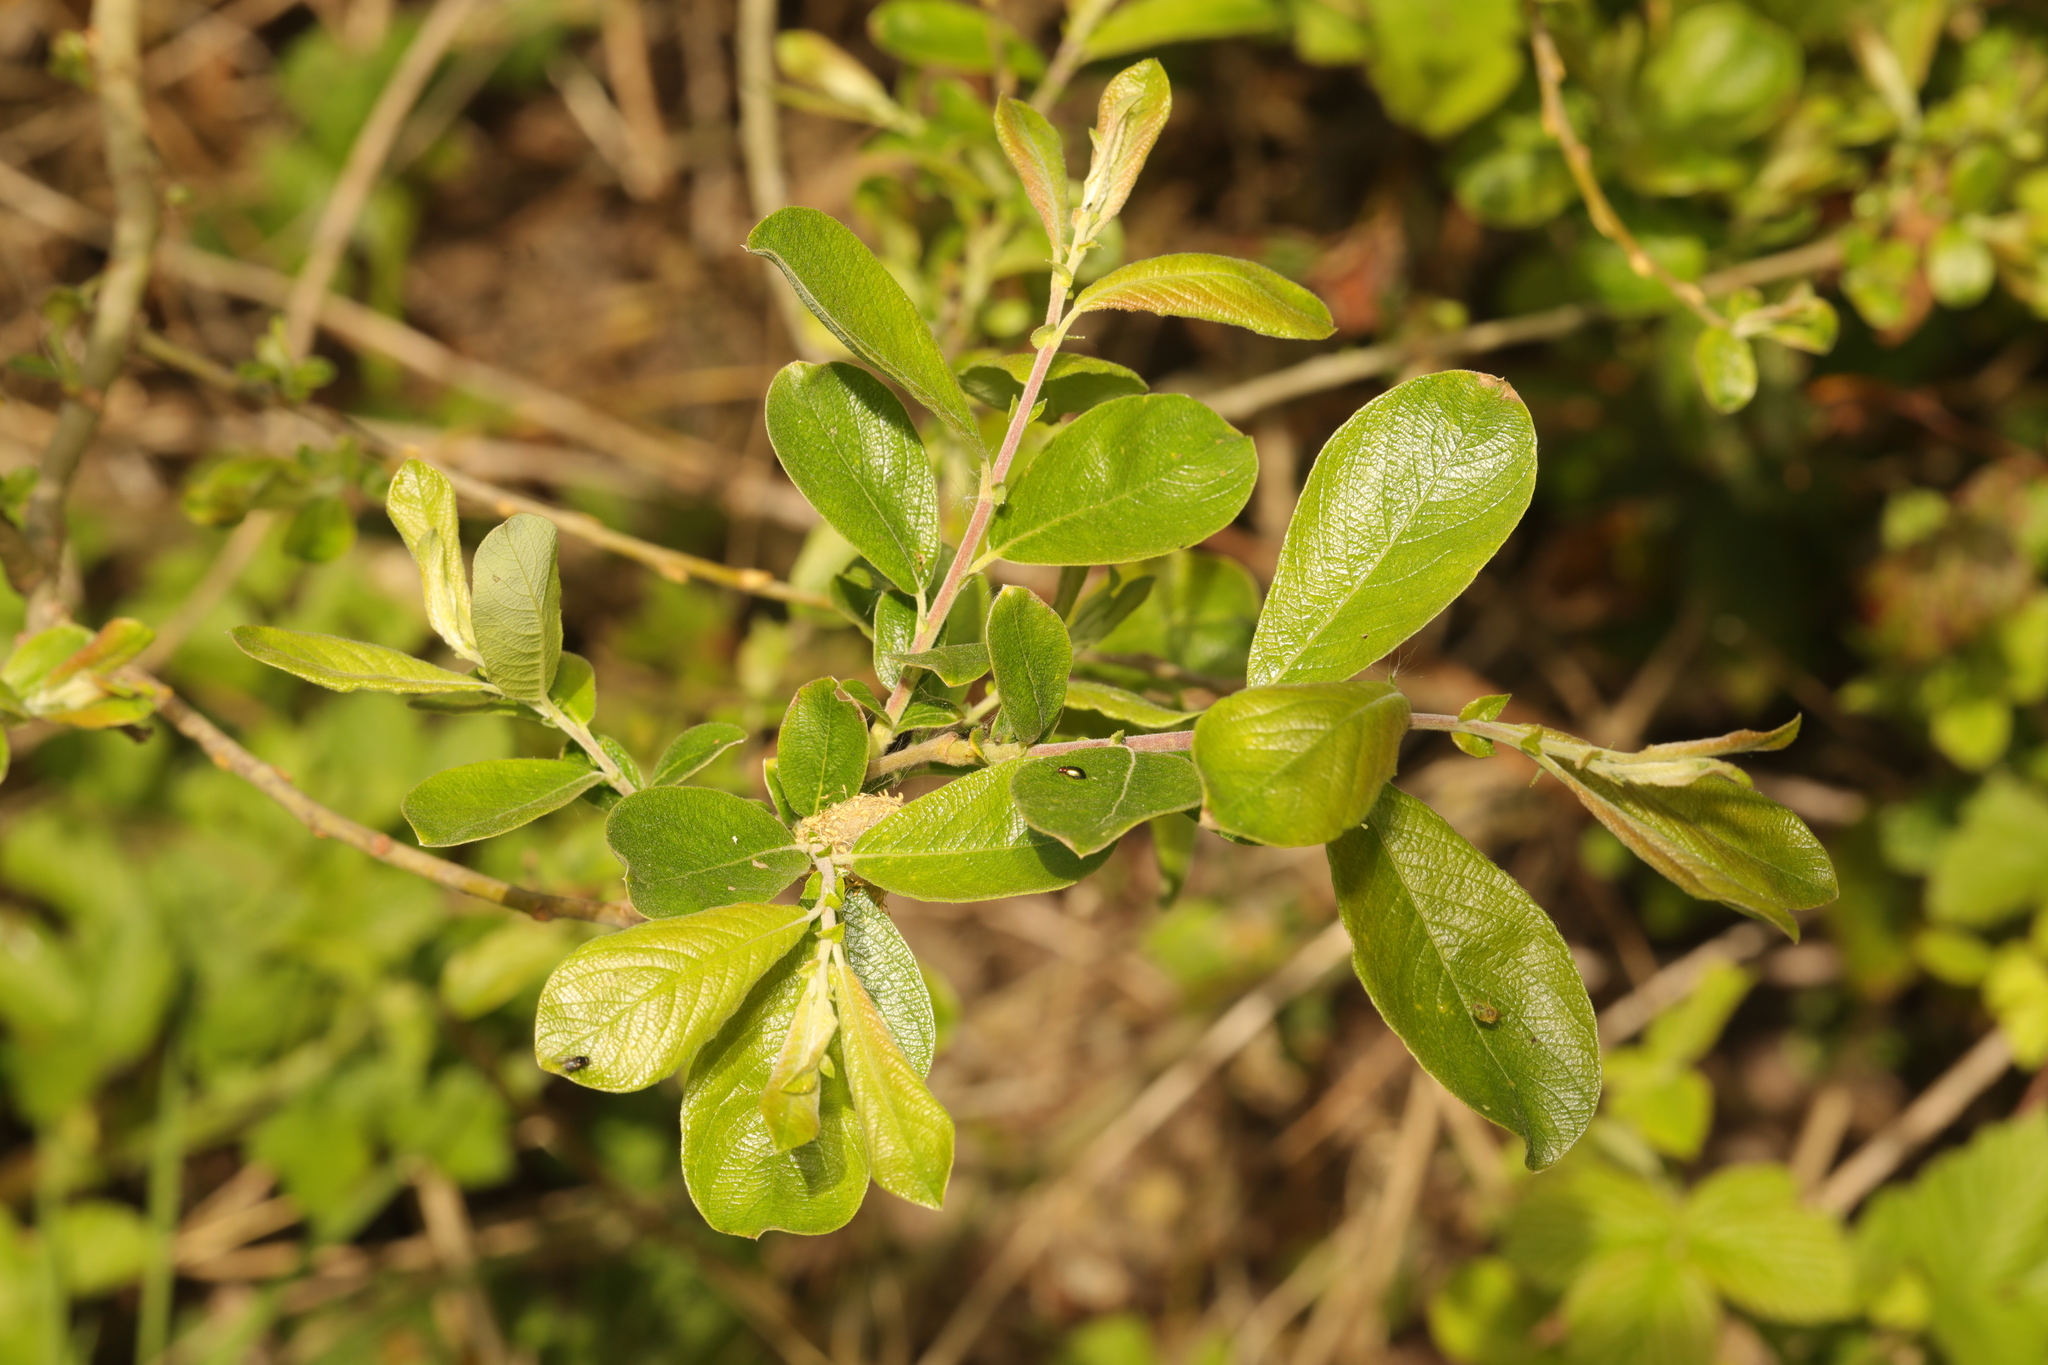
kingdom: Plantae
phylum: Tracheophyta
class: Magnoliopsida
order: Malpighiales
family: Salicaceae
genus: Salix
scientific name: Salix cinerea
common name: Common sallow
